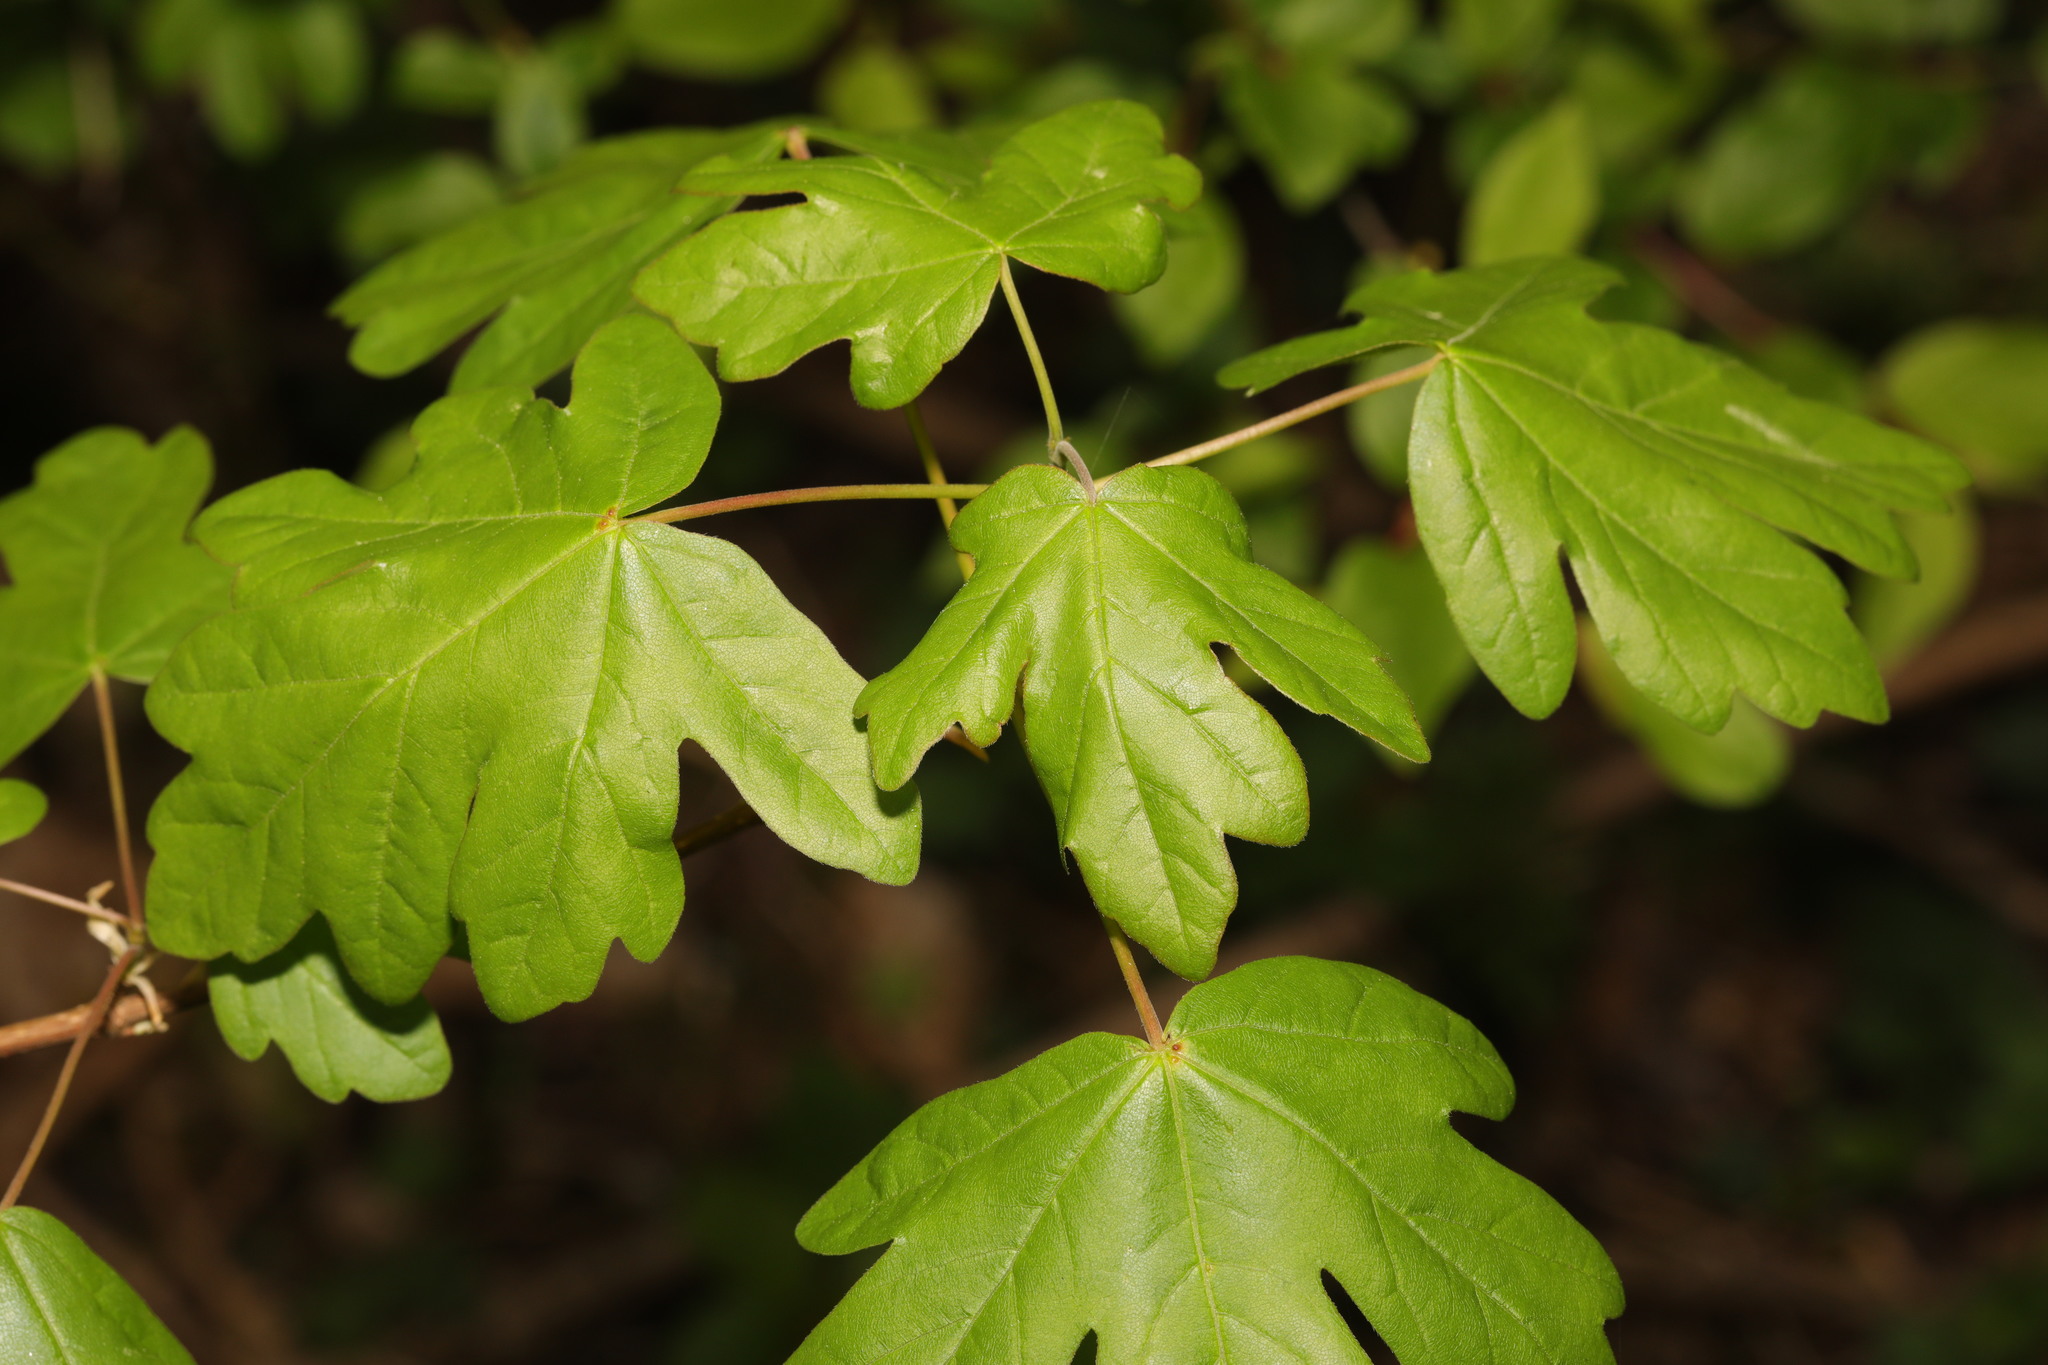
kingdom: Plantae
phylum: Tracheophyta
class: Magnoliopsida
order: Sapindales
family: Sapindaceae
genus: Acer
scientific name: Acer campestre
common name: Field maple
